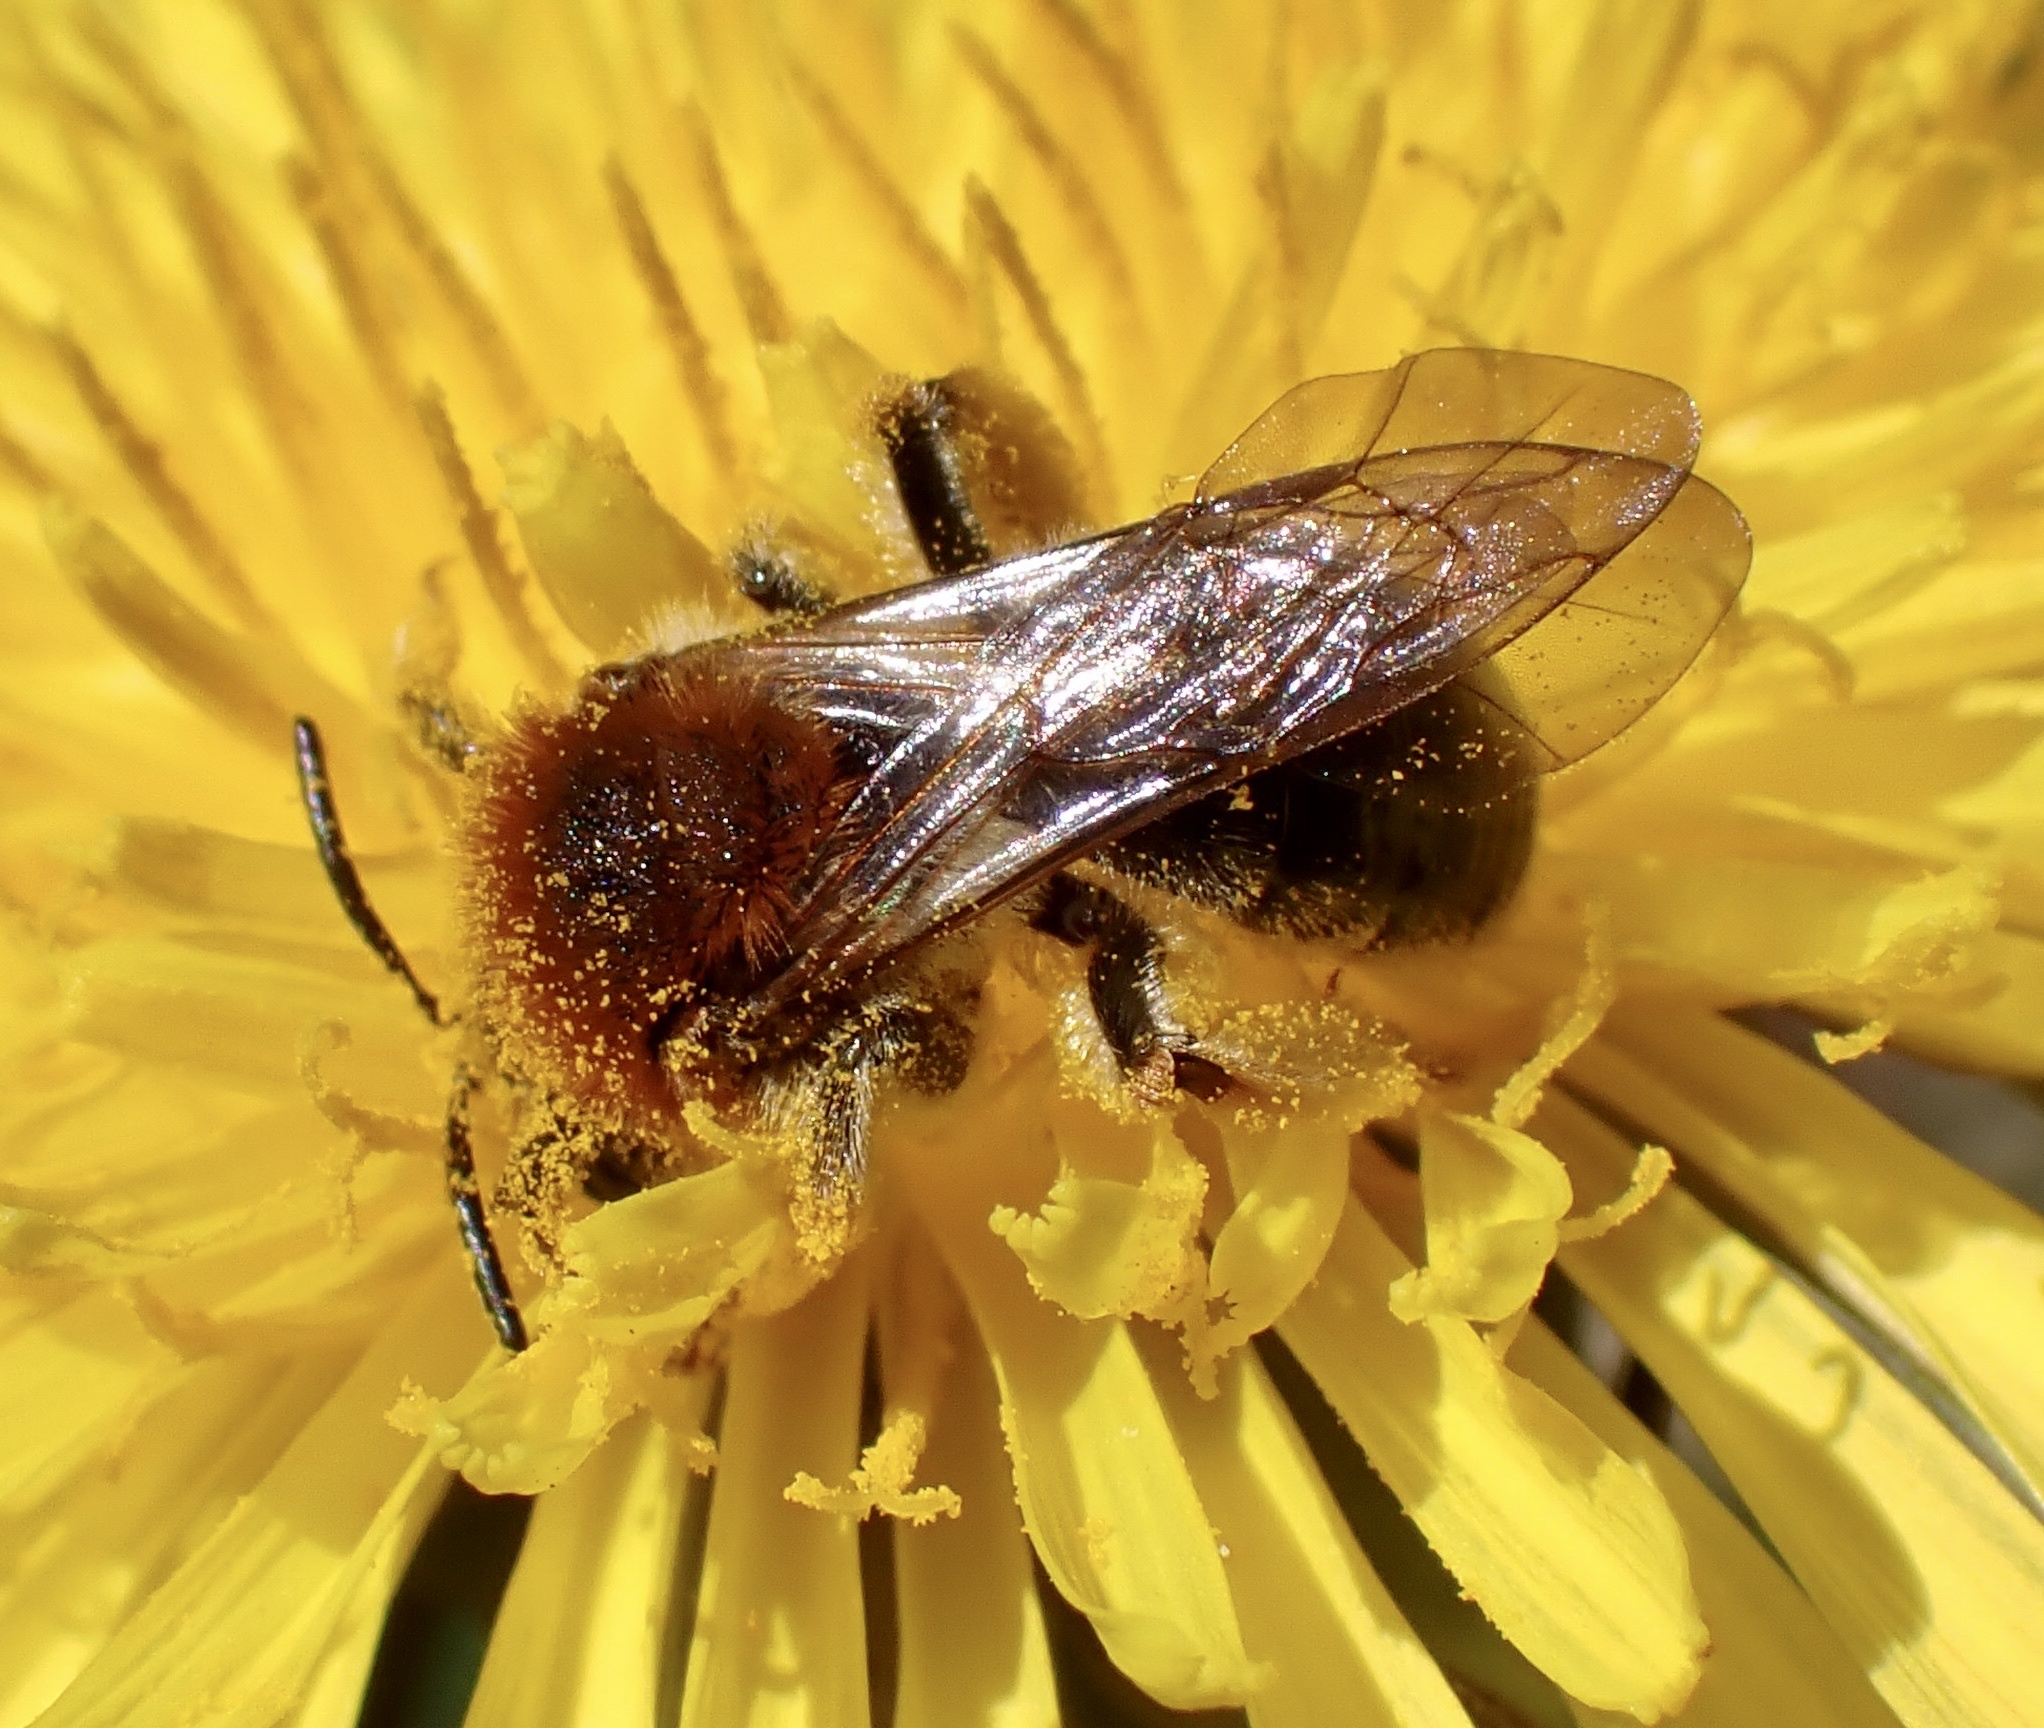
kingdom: Animalia
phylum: Arthropoda
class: Insecta
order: Hymenoptera
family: Andrenidae
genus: Andrena
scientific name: Andrena haemorrhoa
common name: Early mining bee
